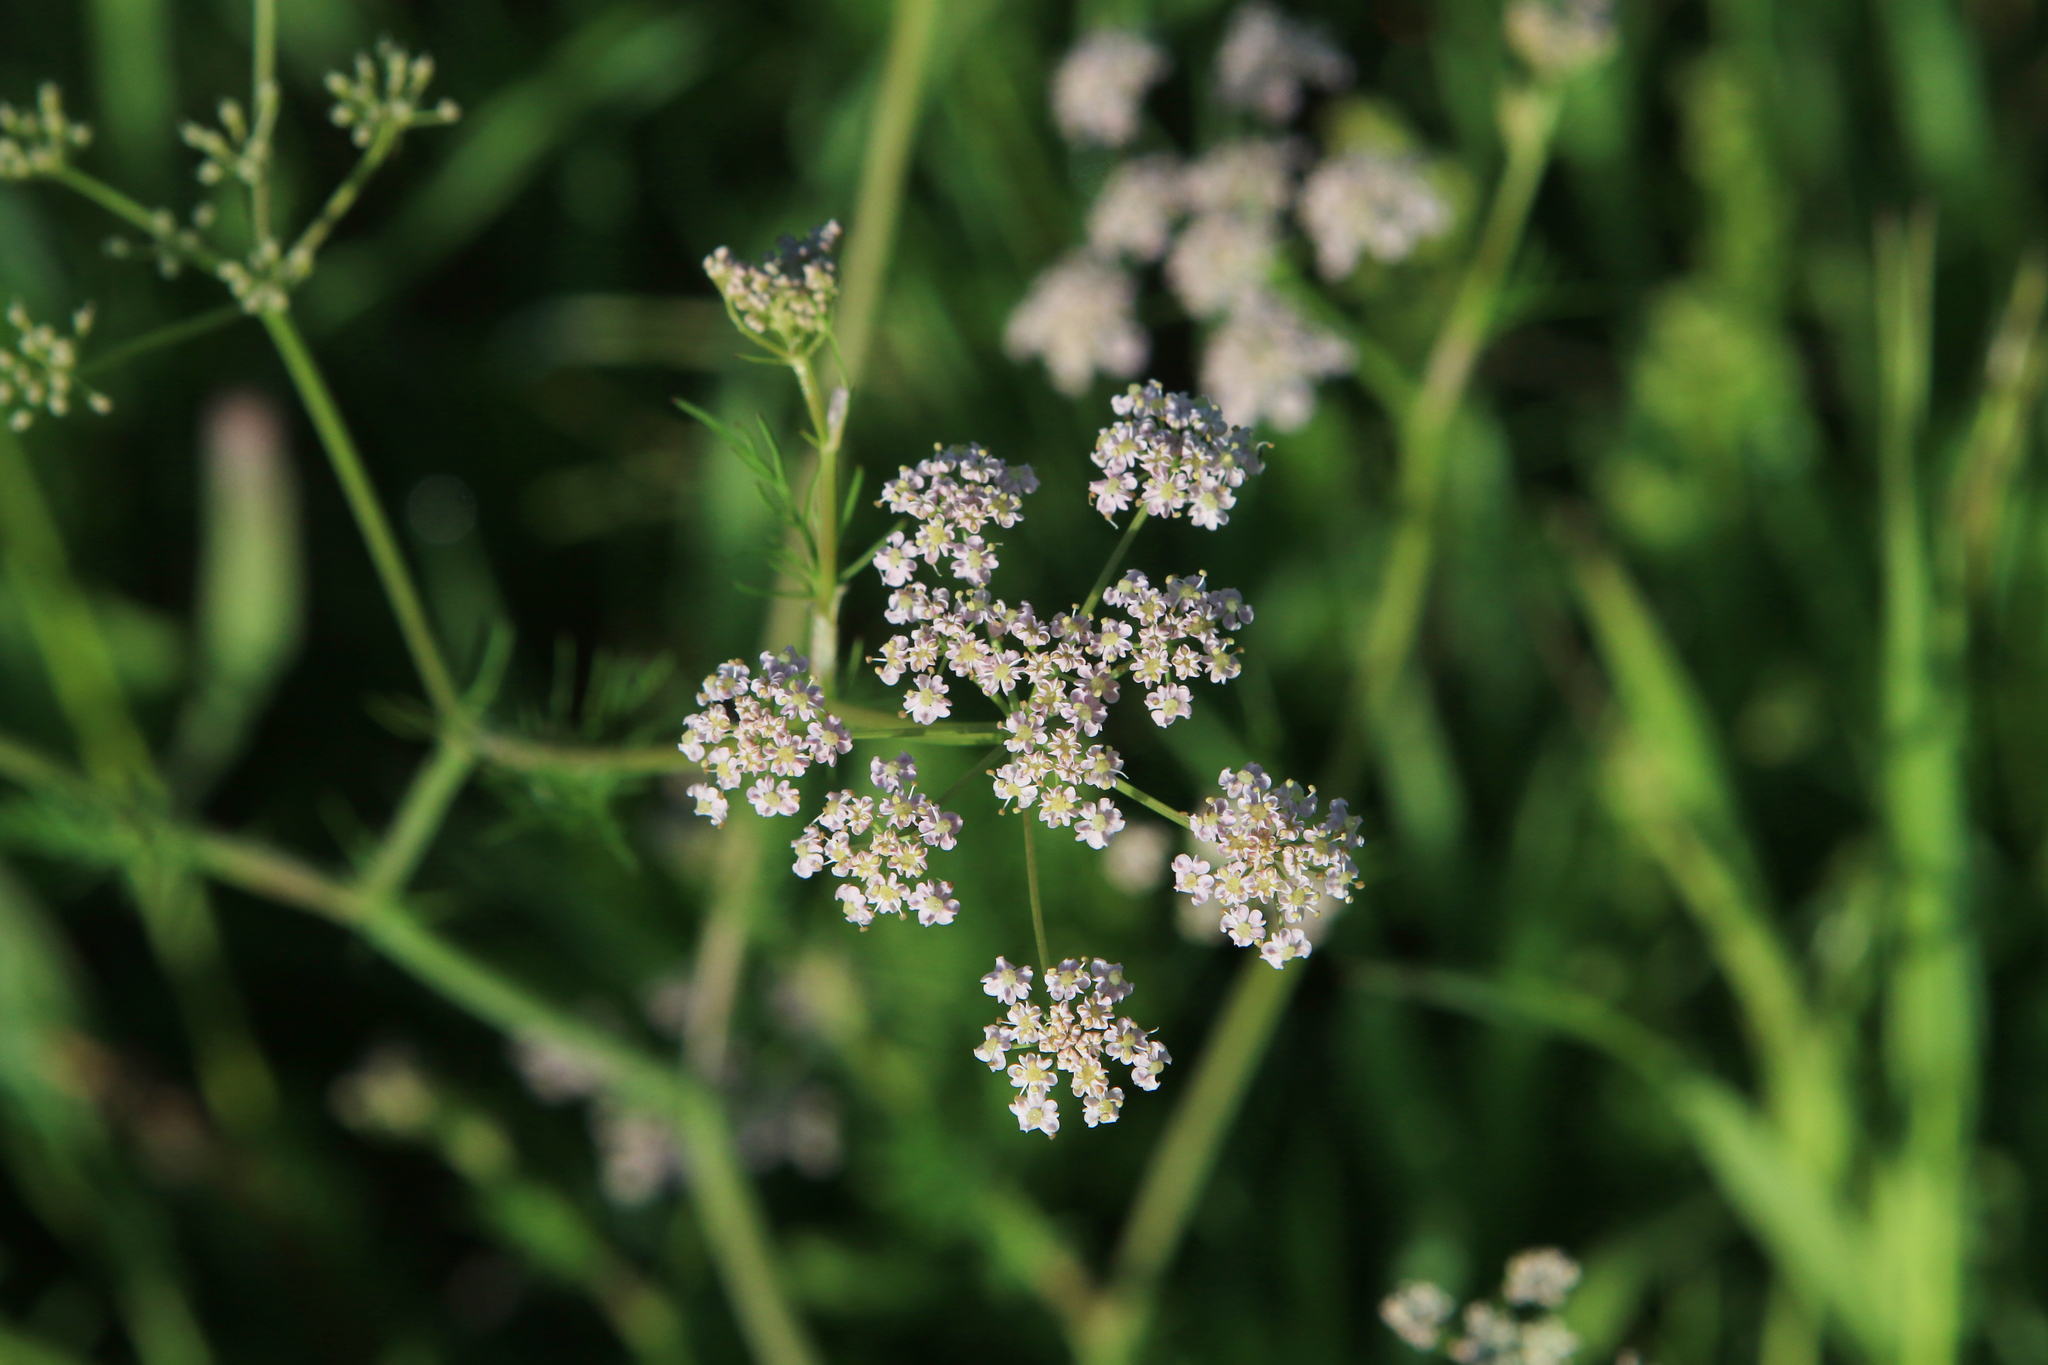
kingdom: Plantae
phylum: Tracheophyta
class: Magnoliopsida
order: Apiales
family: Apiaceae
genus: Carum
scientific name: Carum carvi
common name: Caraway
